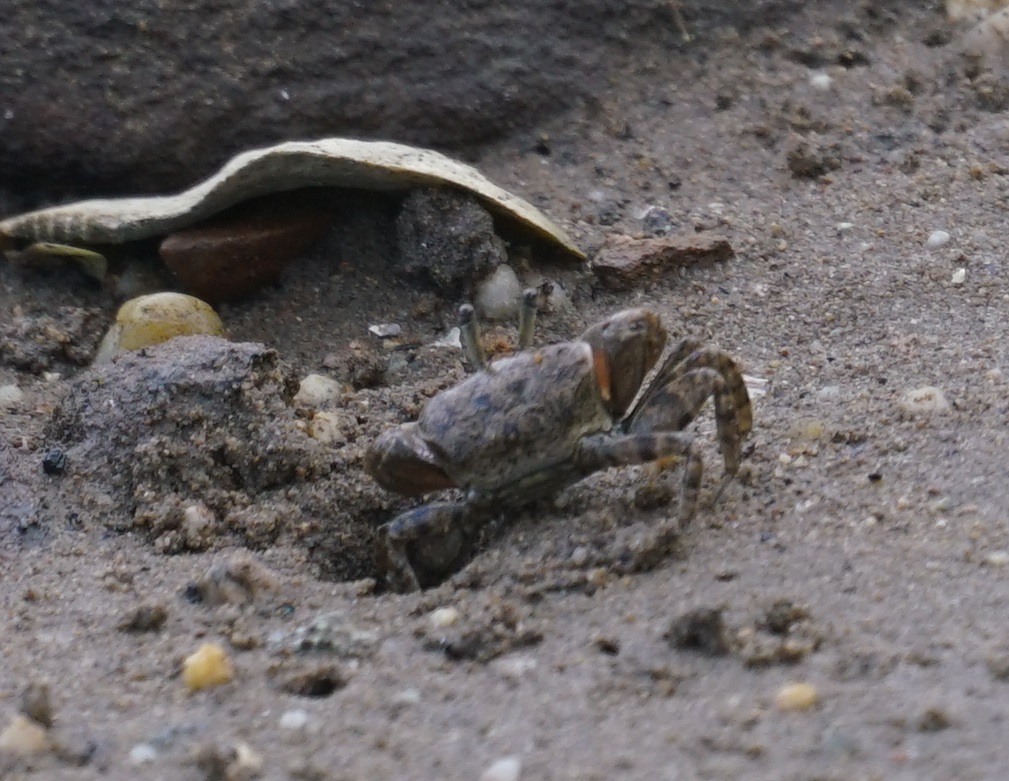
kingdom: Animalia
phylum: Arthropoda
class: Malacostraca
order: Decapoda
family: Heloeciidae
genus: Heloecius
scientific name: Heloecius cordiformis
